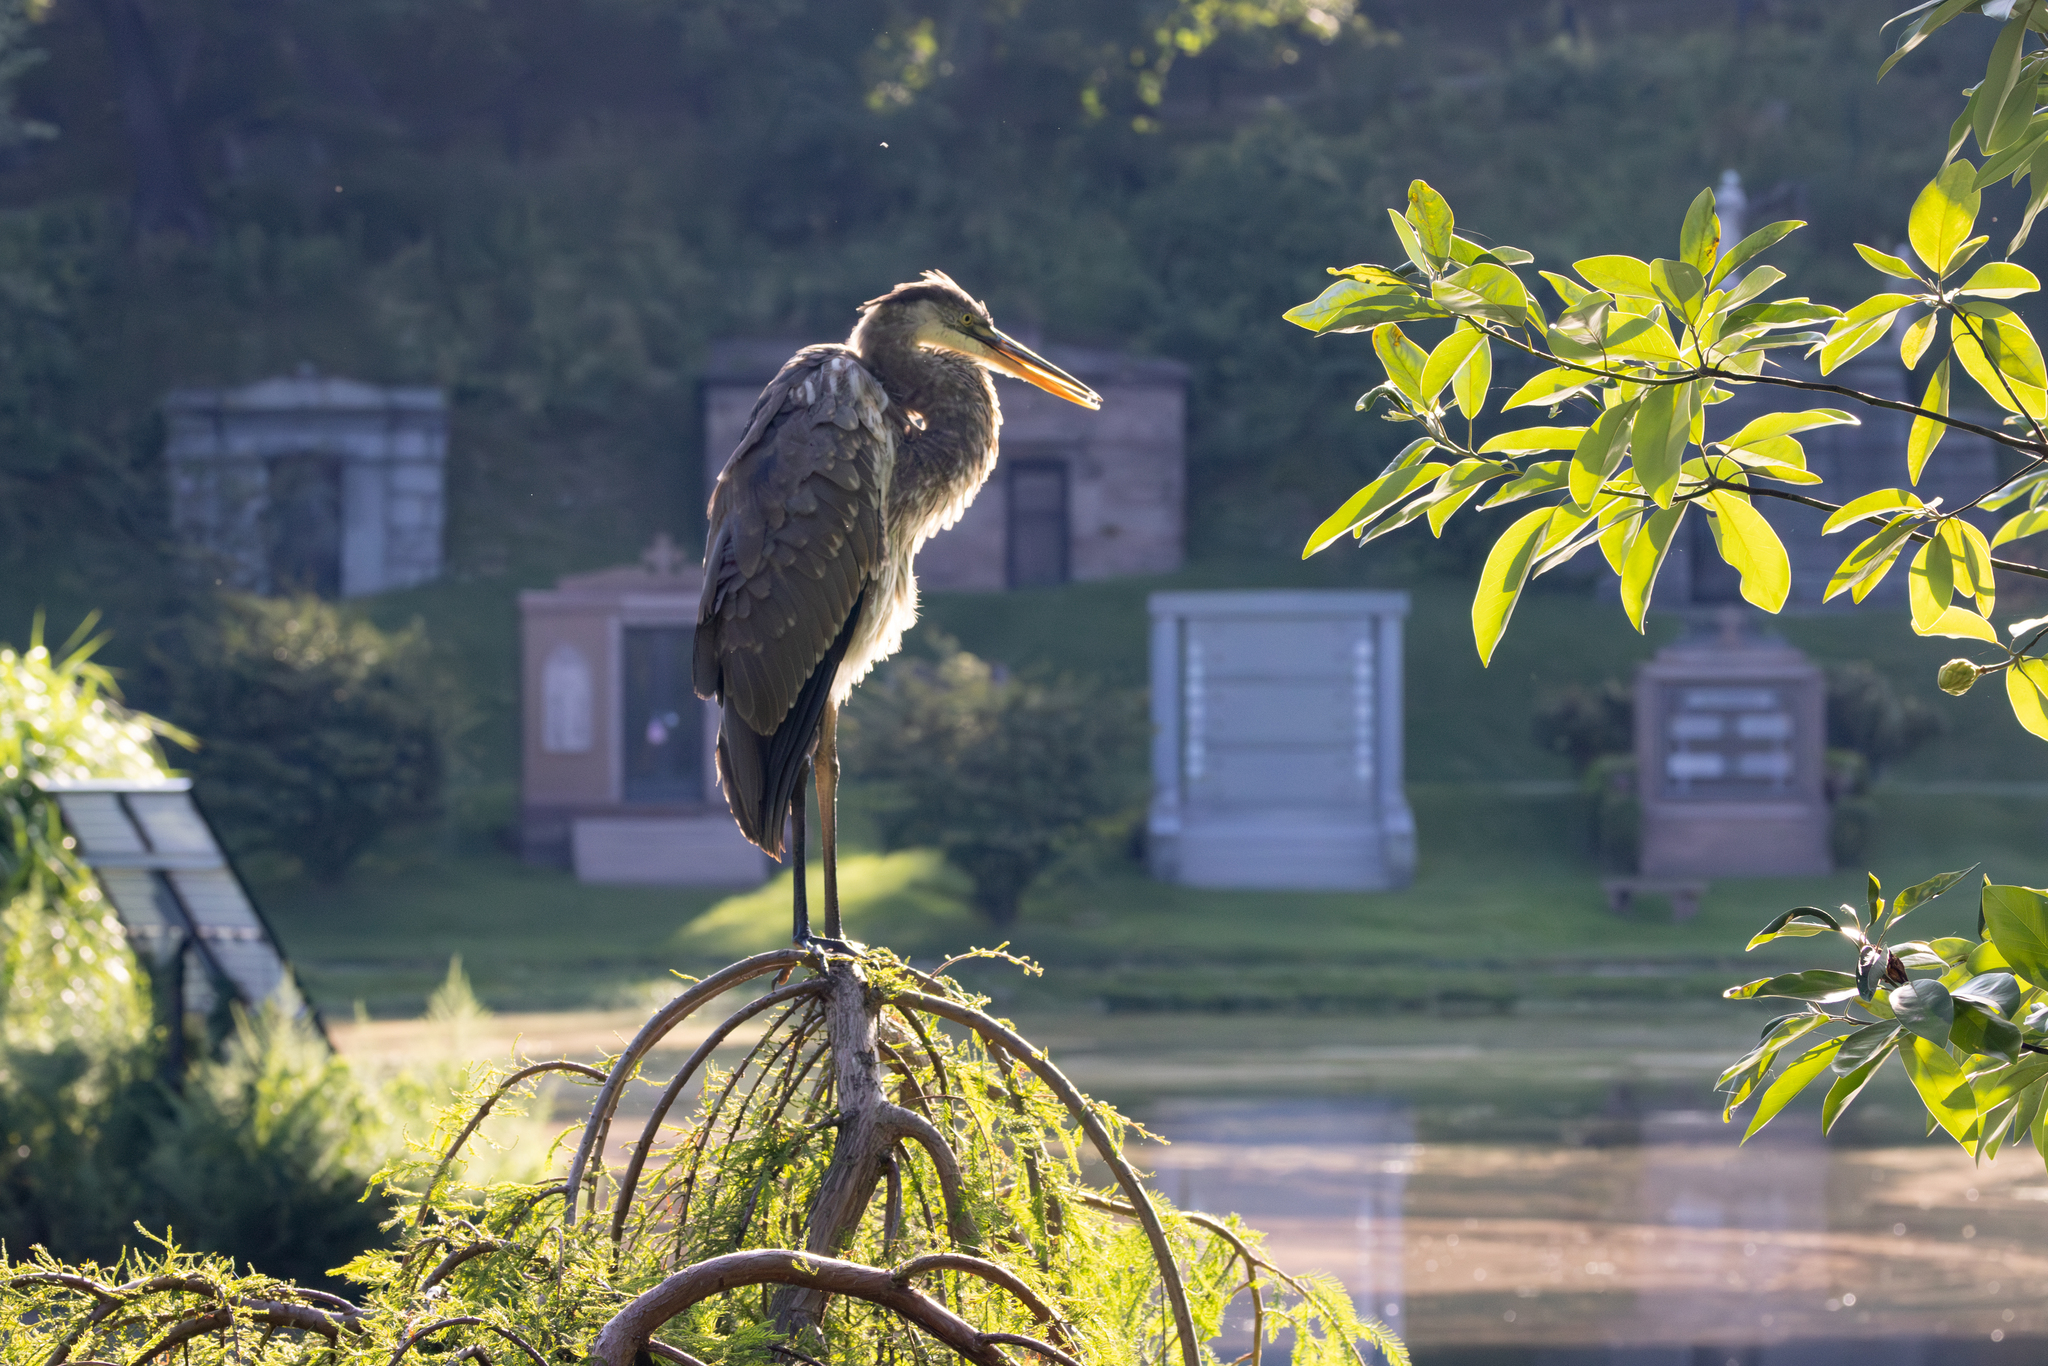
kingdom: Animalia
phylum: Chordata
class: Aves
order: Pelecaniformes
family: Ardeidae
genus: Ardea
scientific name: Ardea herodias
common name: Great blue heron
